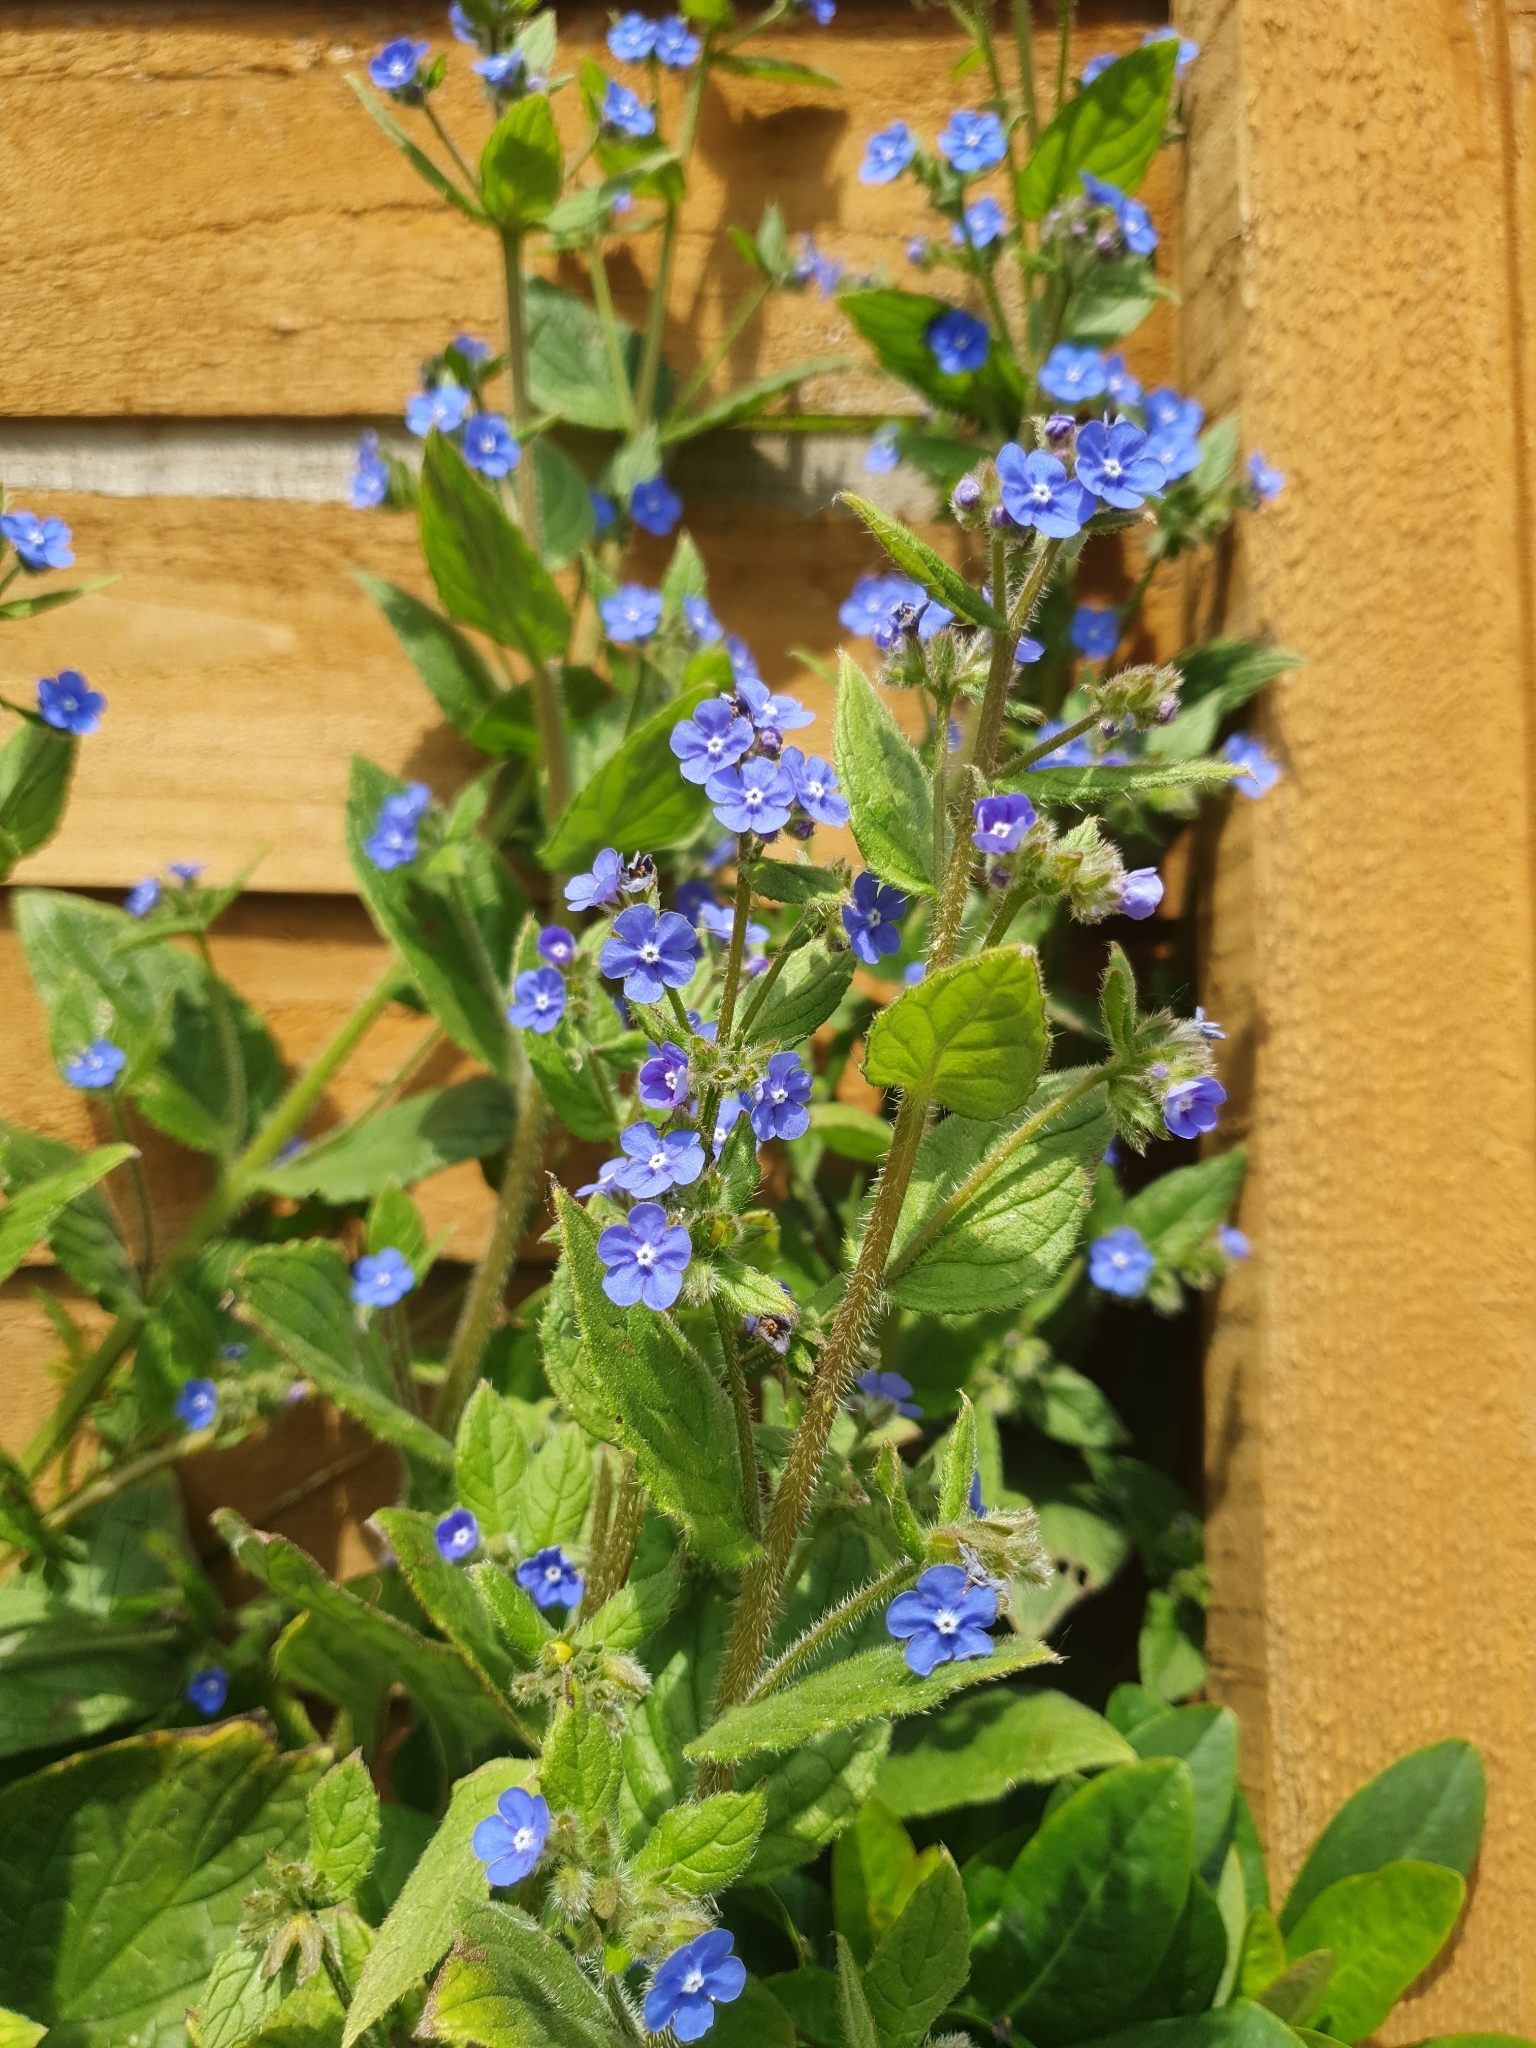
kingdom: Plantae
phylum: Tracheophyta
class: Magnoliopsida
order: Boraginales
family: Boraginaceae
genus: Pentaglottis
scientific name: Pentaglottis sempervirens
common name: Green alkanet
